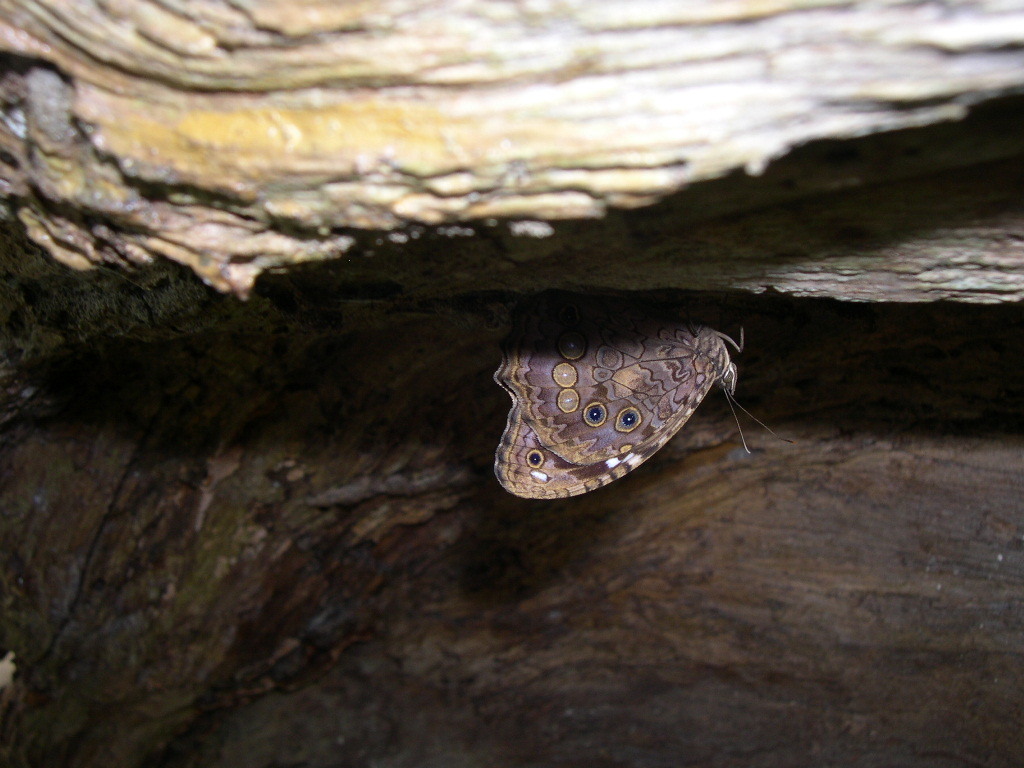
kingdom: Animalia
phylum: Arthropoda
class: Insecta
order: Lepidoptera
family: Nymphalidae
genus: Manataria
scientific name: Manataria maculata
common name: White-spotted satyr
